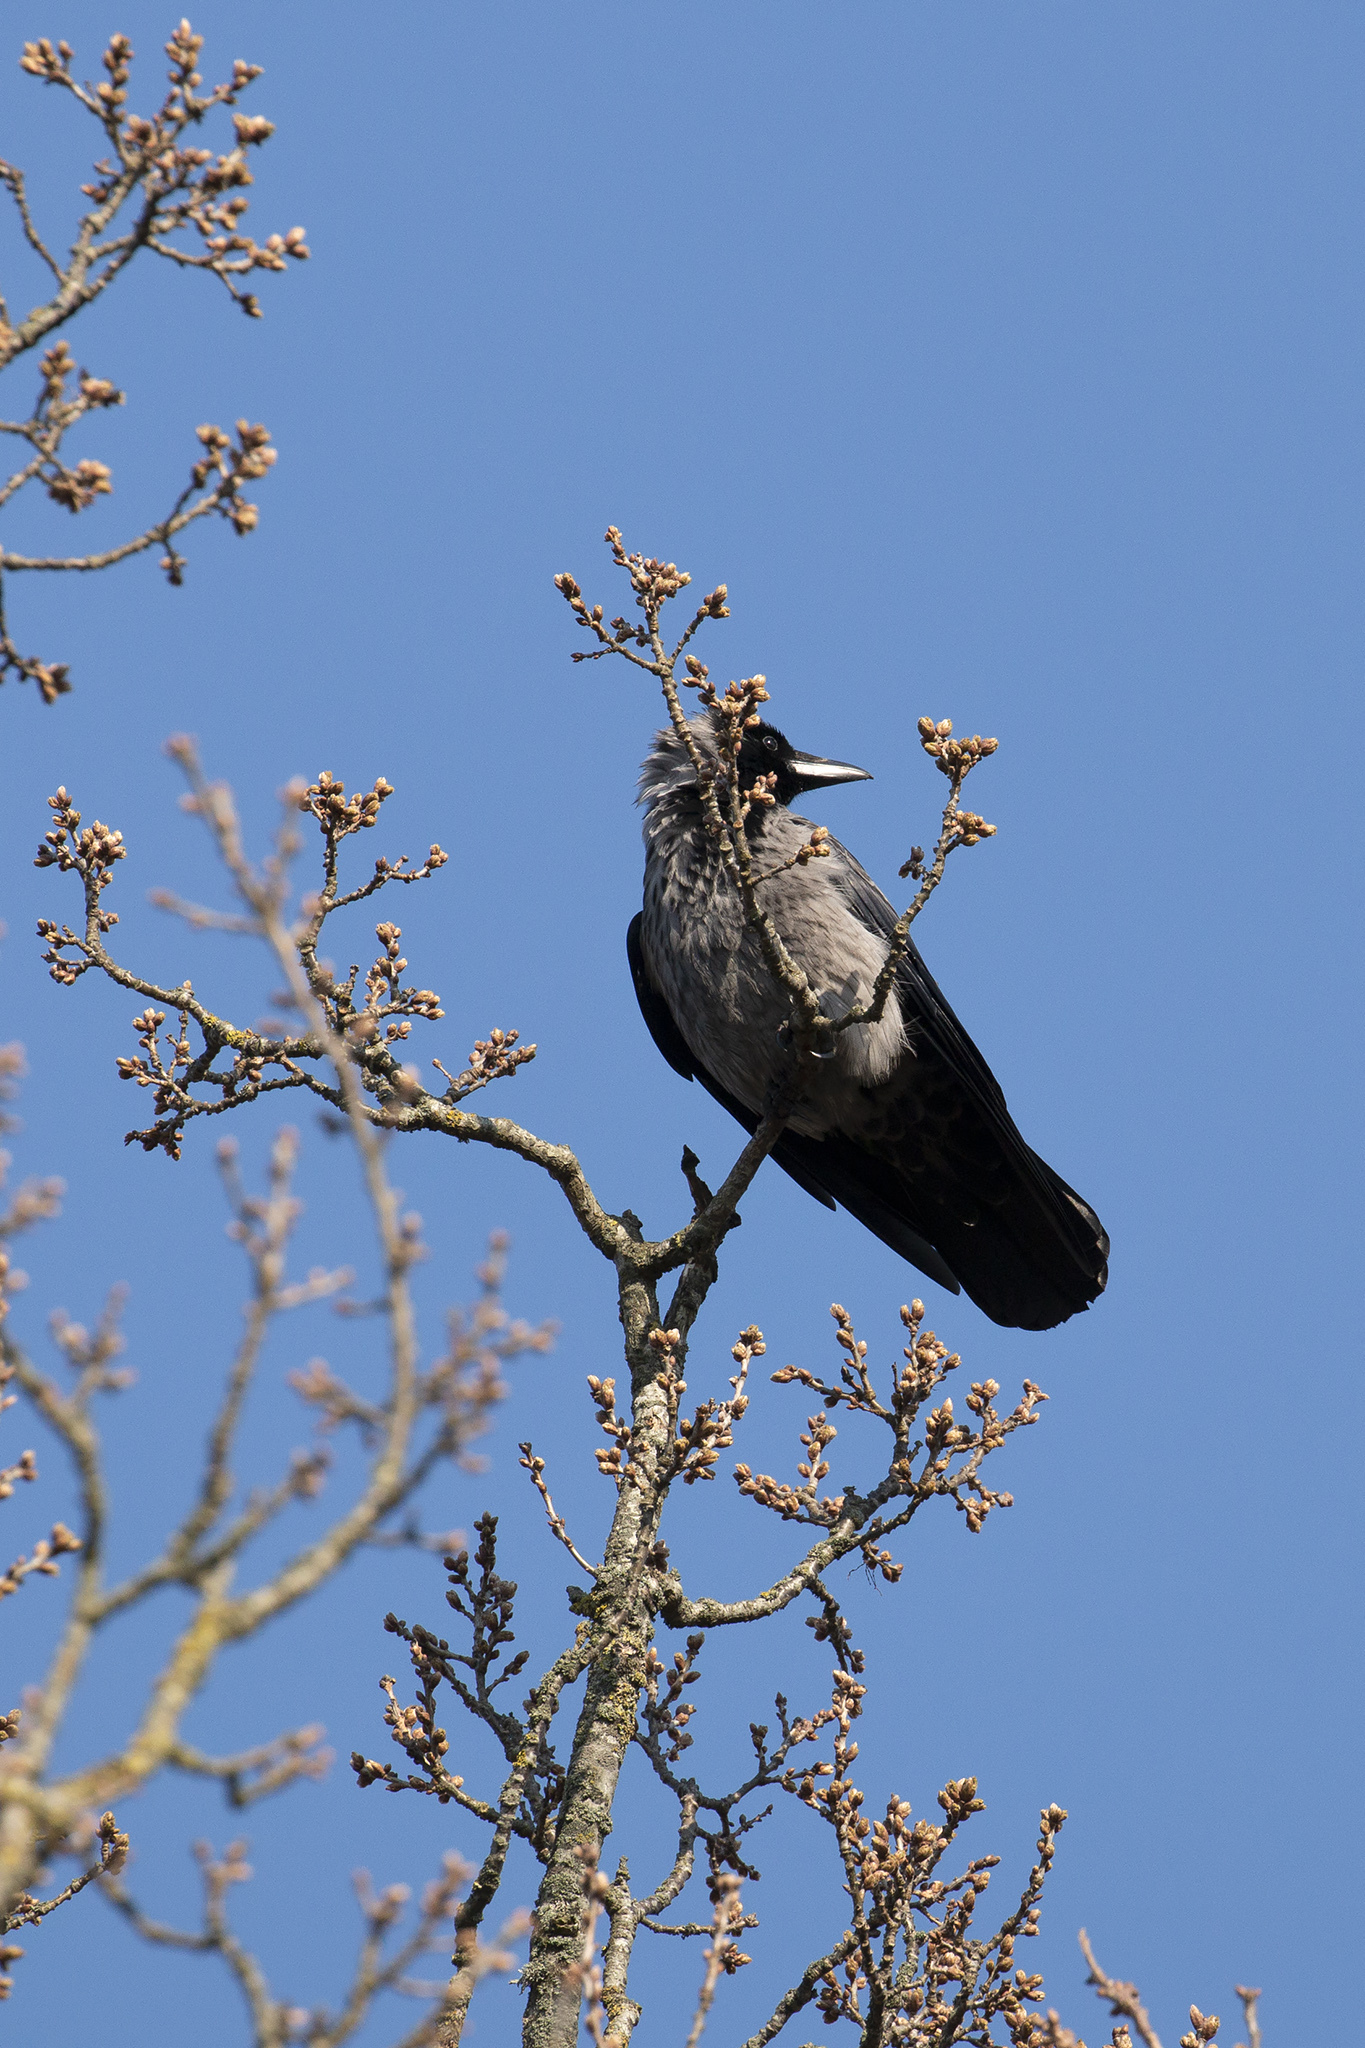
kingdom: Animalia
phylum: Chordata
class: Aves
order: Passeriformes
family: Corvidae
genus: Corvus
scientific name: Corvus cornix
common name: Hooded crow
